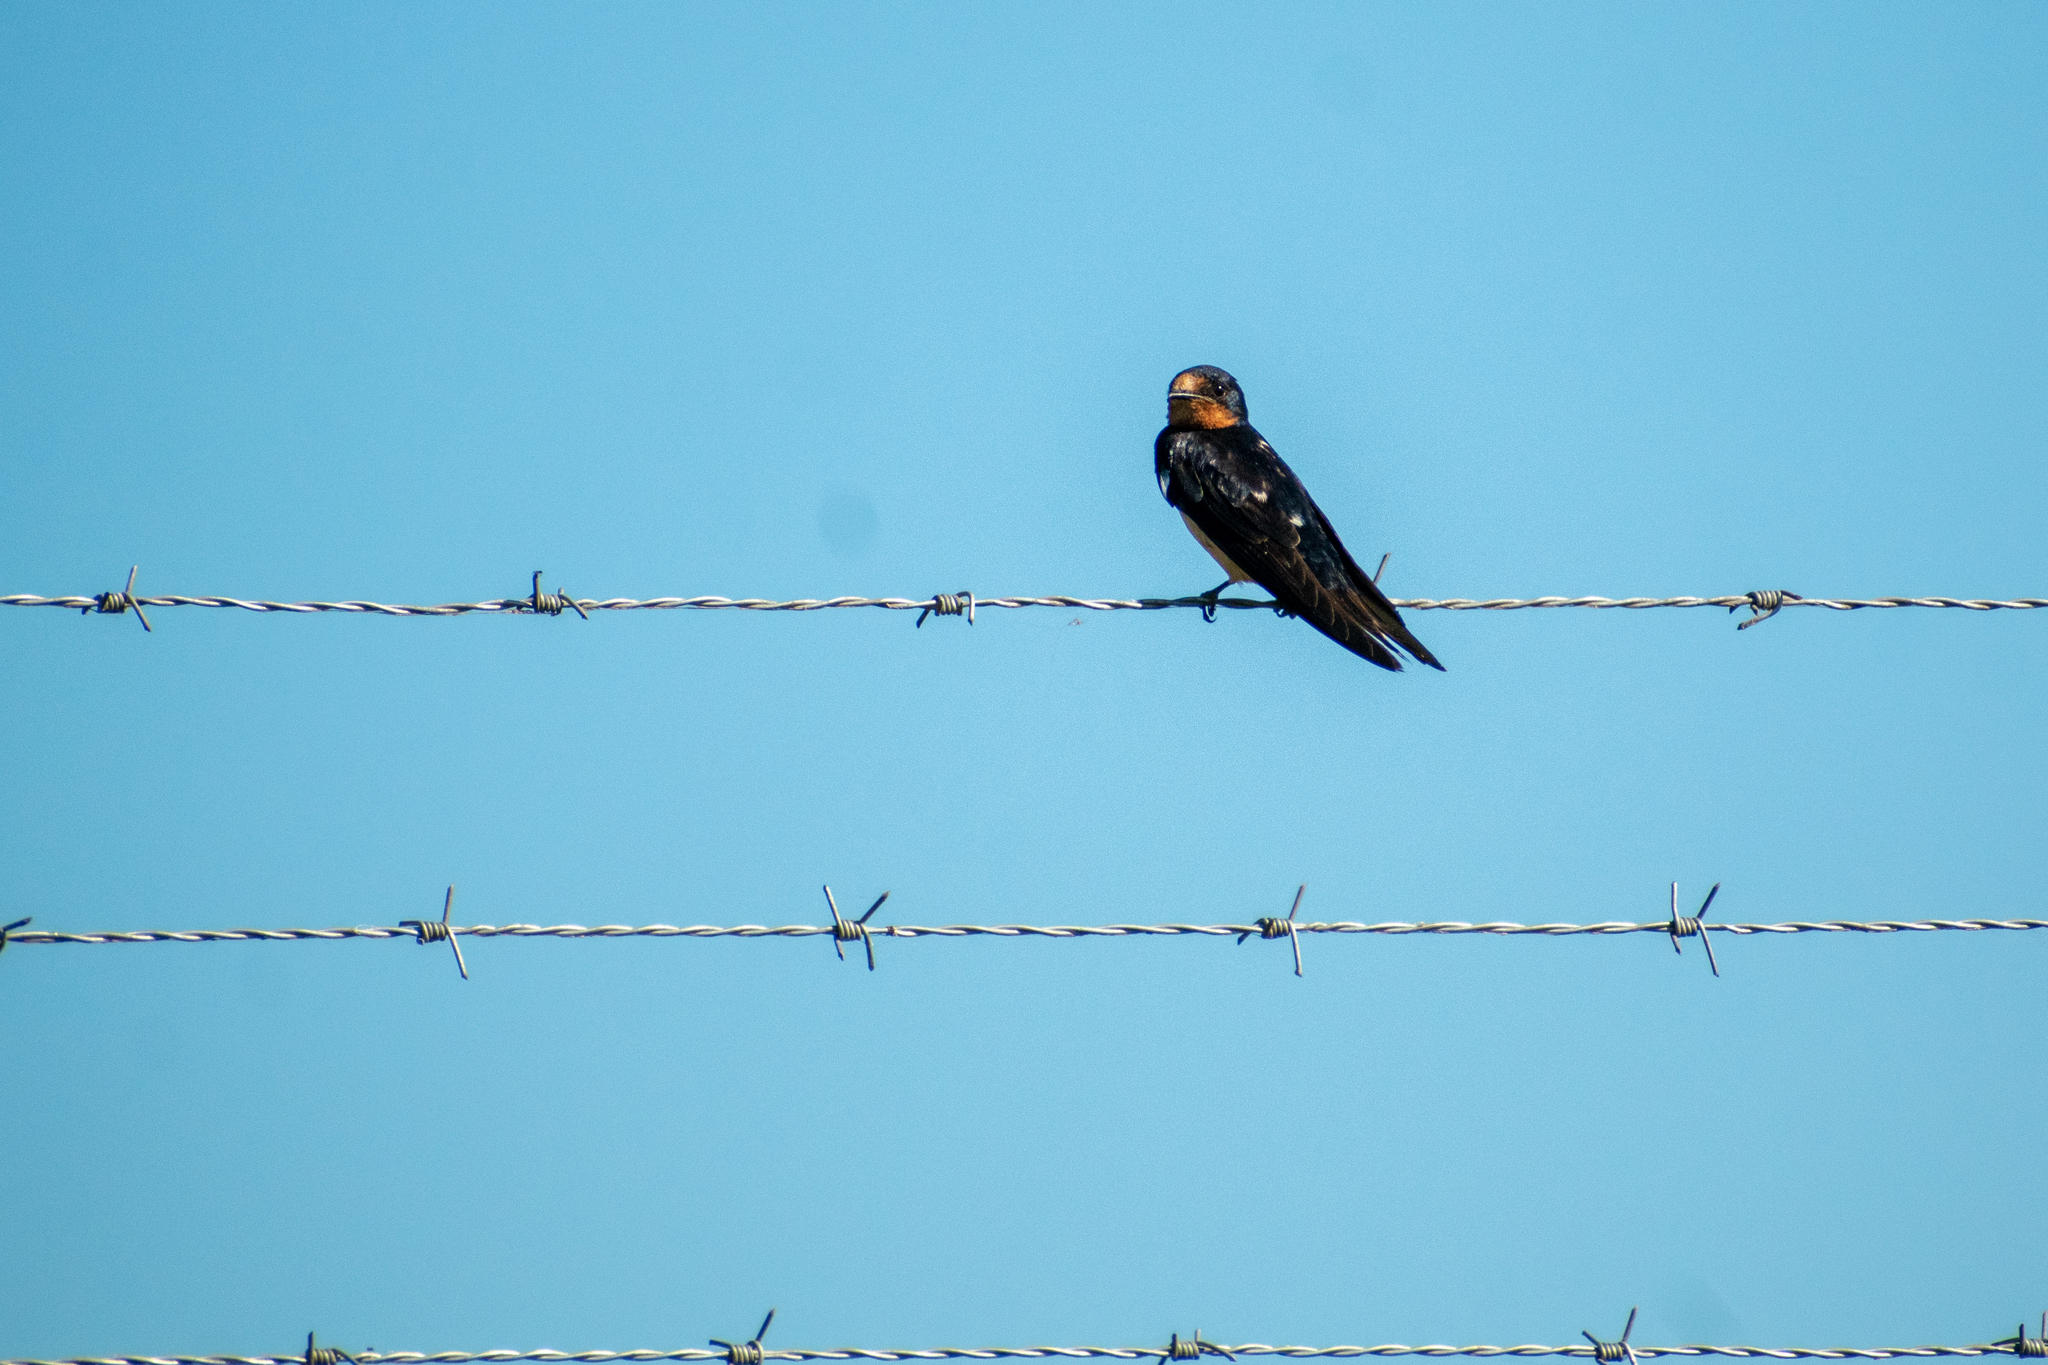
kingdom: Animalia
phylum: Chordata
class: Aves
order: Passeriformes
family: Hirundinidae
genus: Hirundo
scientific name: Hirundo rustica
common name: Barn swallow
